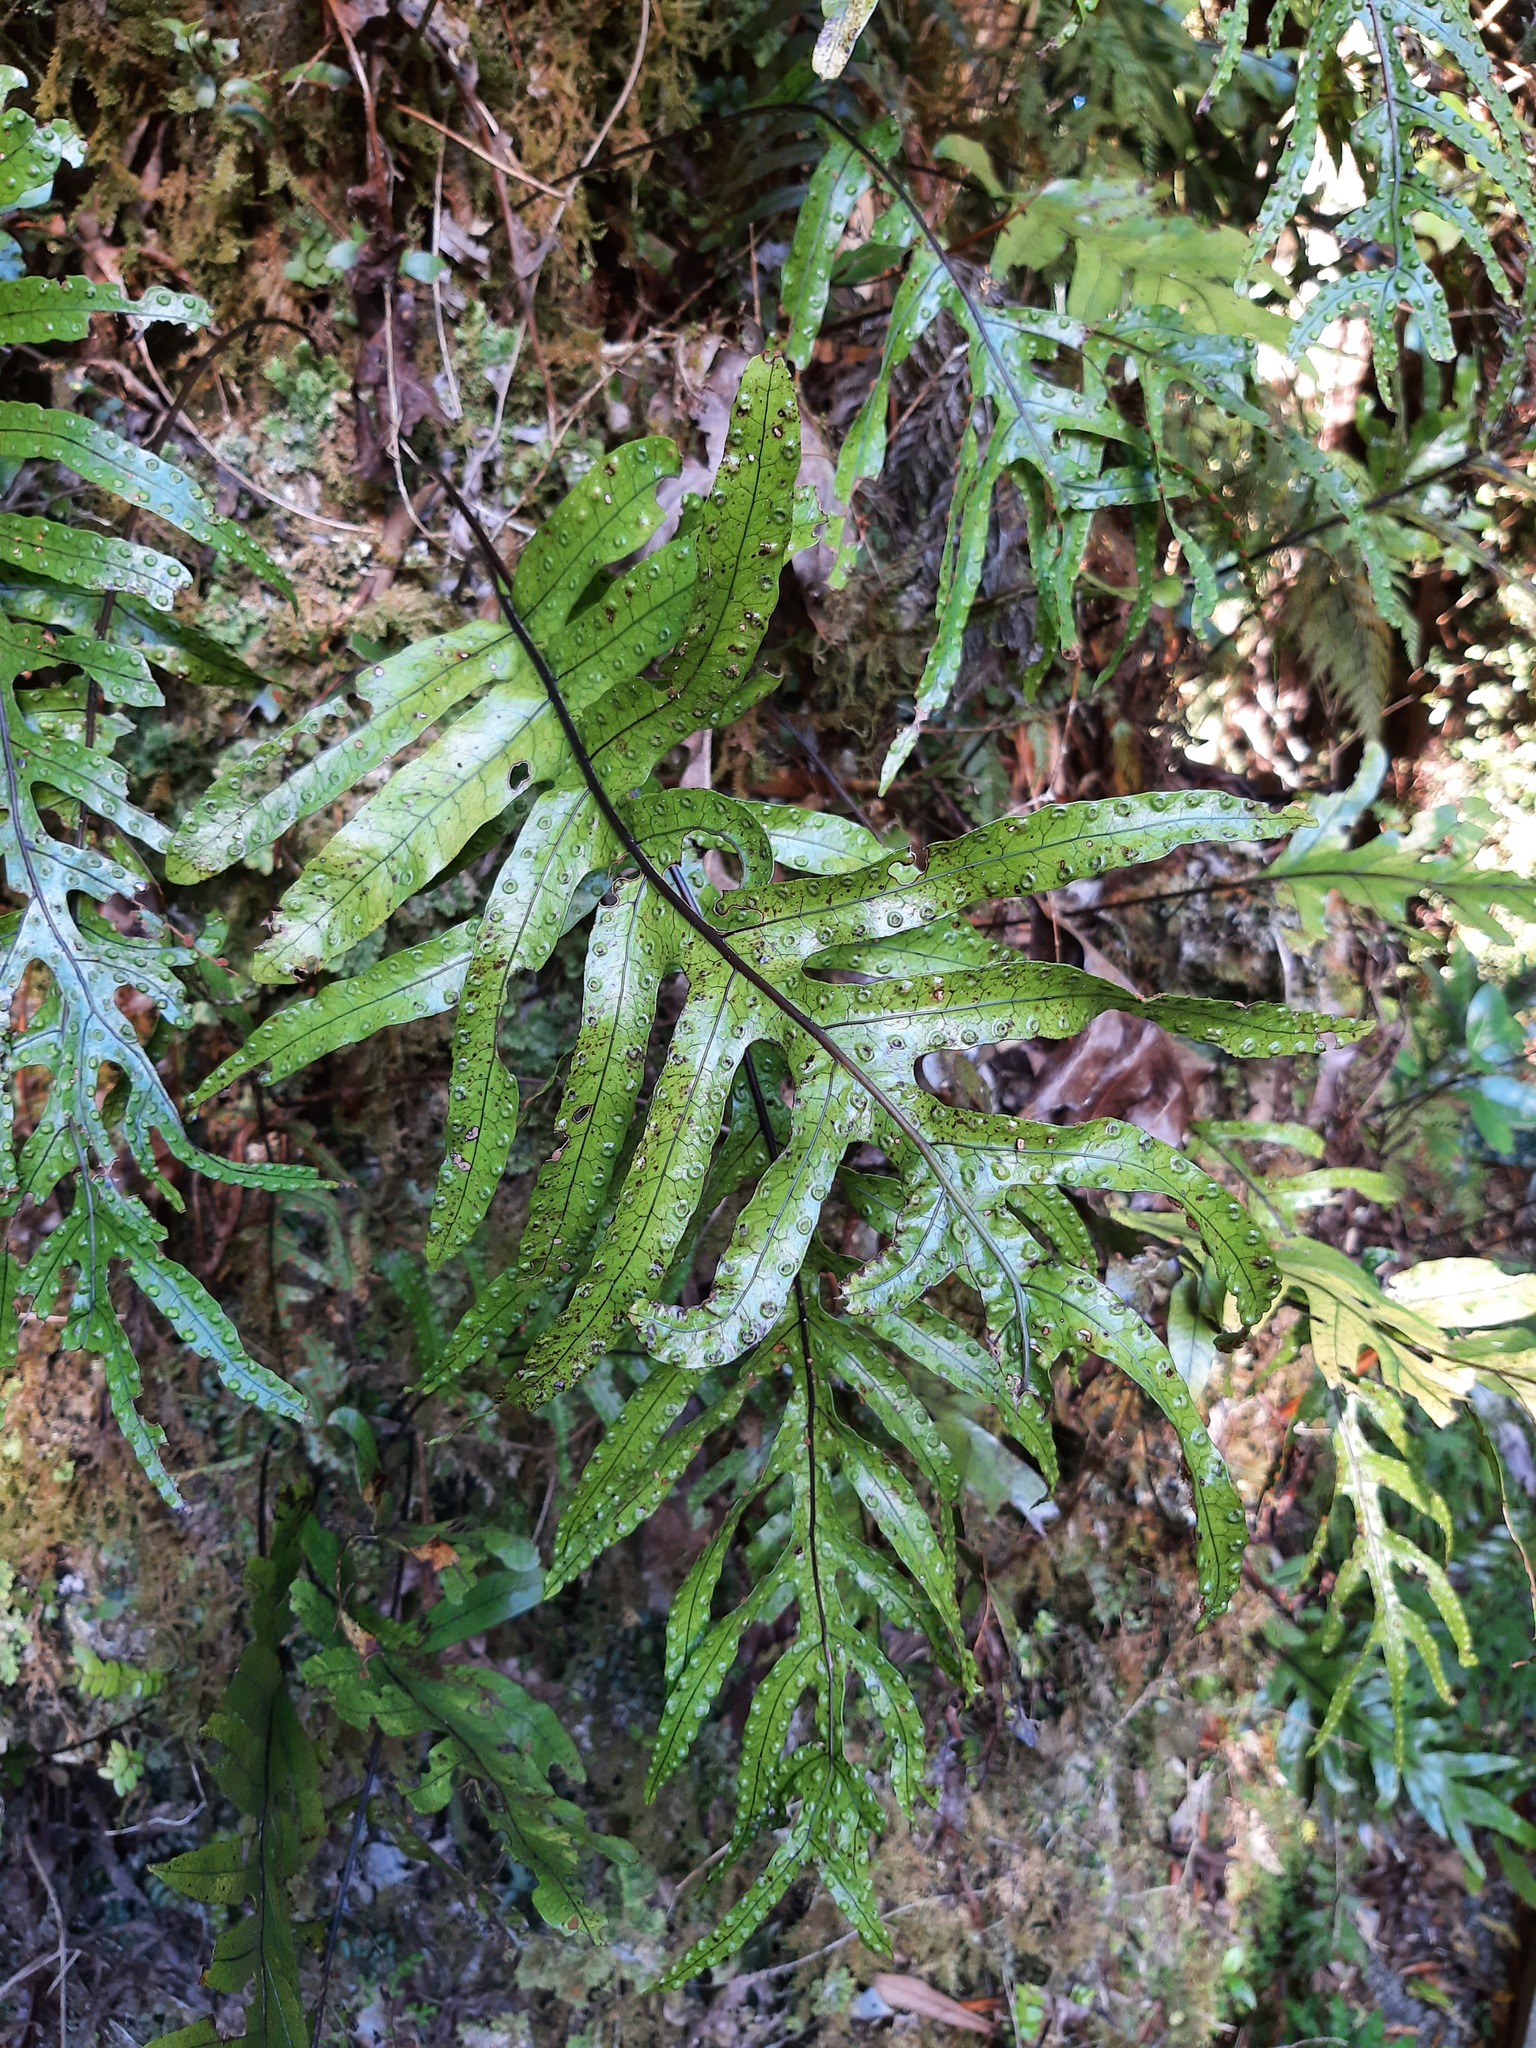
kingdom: Plantae
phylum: Tracheophyta
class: Polypodiopsida
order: Polypodiales
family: Polypodiaceae
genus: Lecanopteris
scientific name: Lecanopteris pustulata
